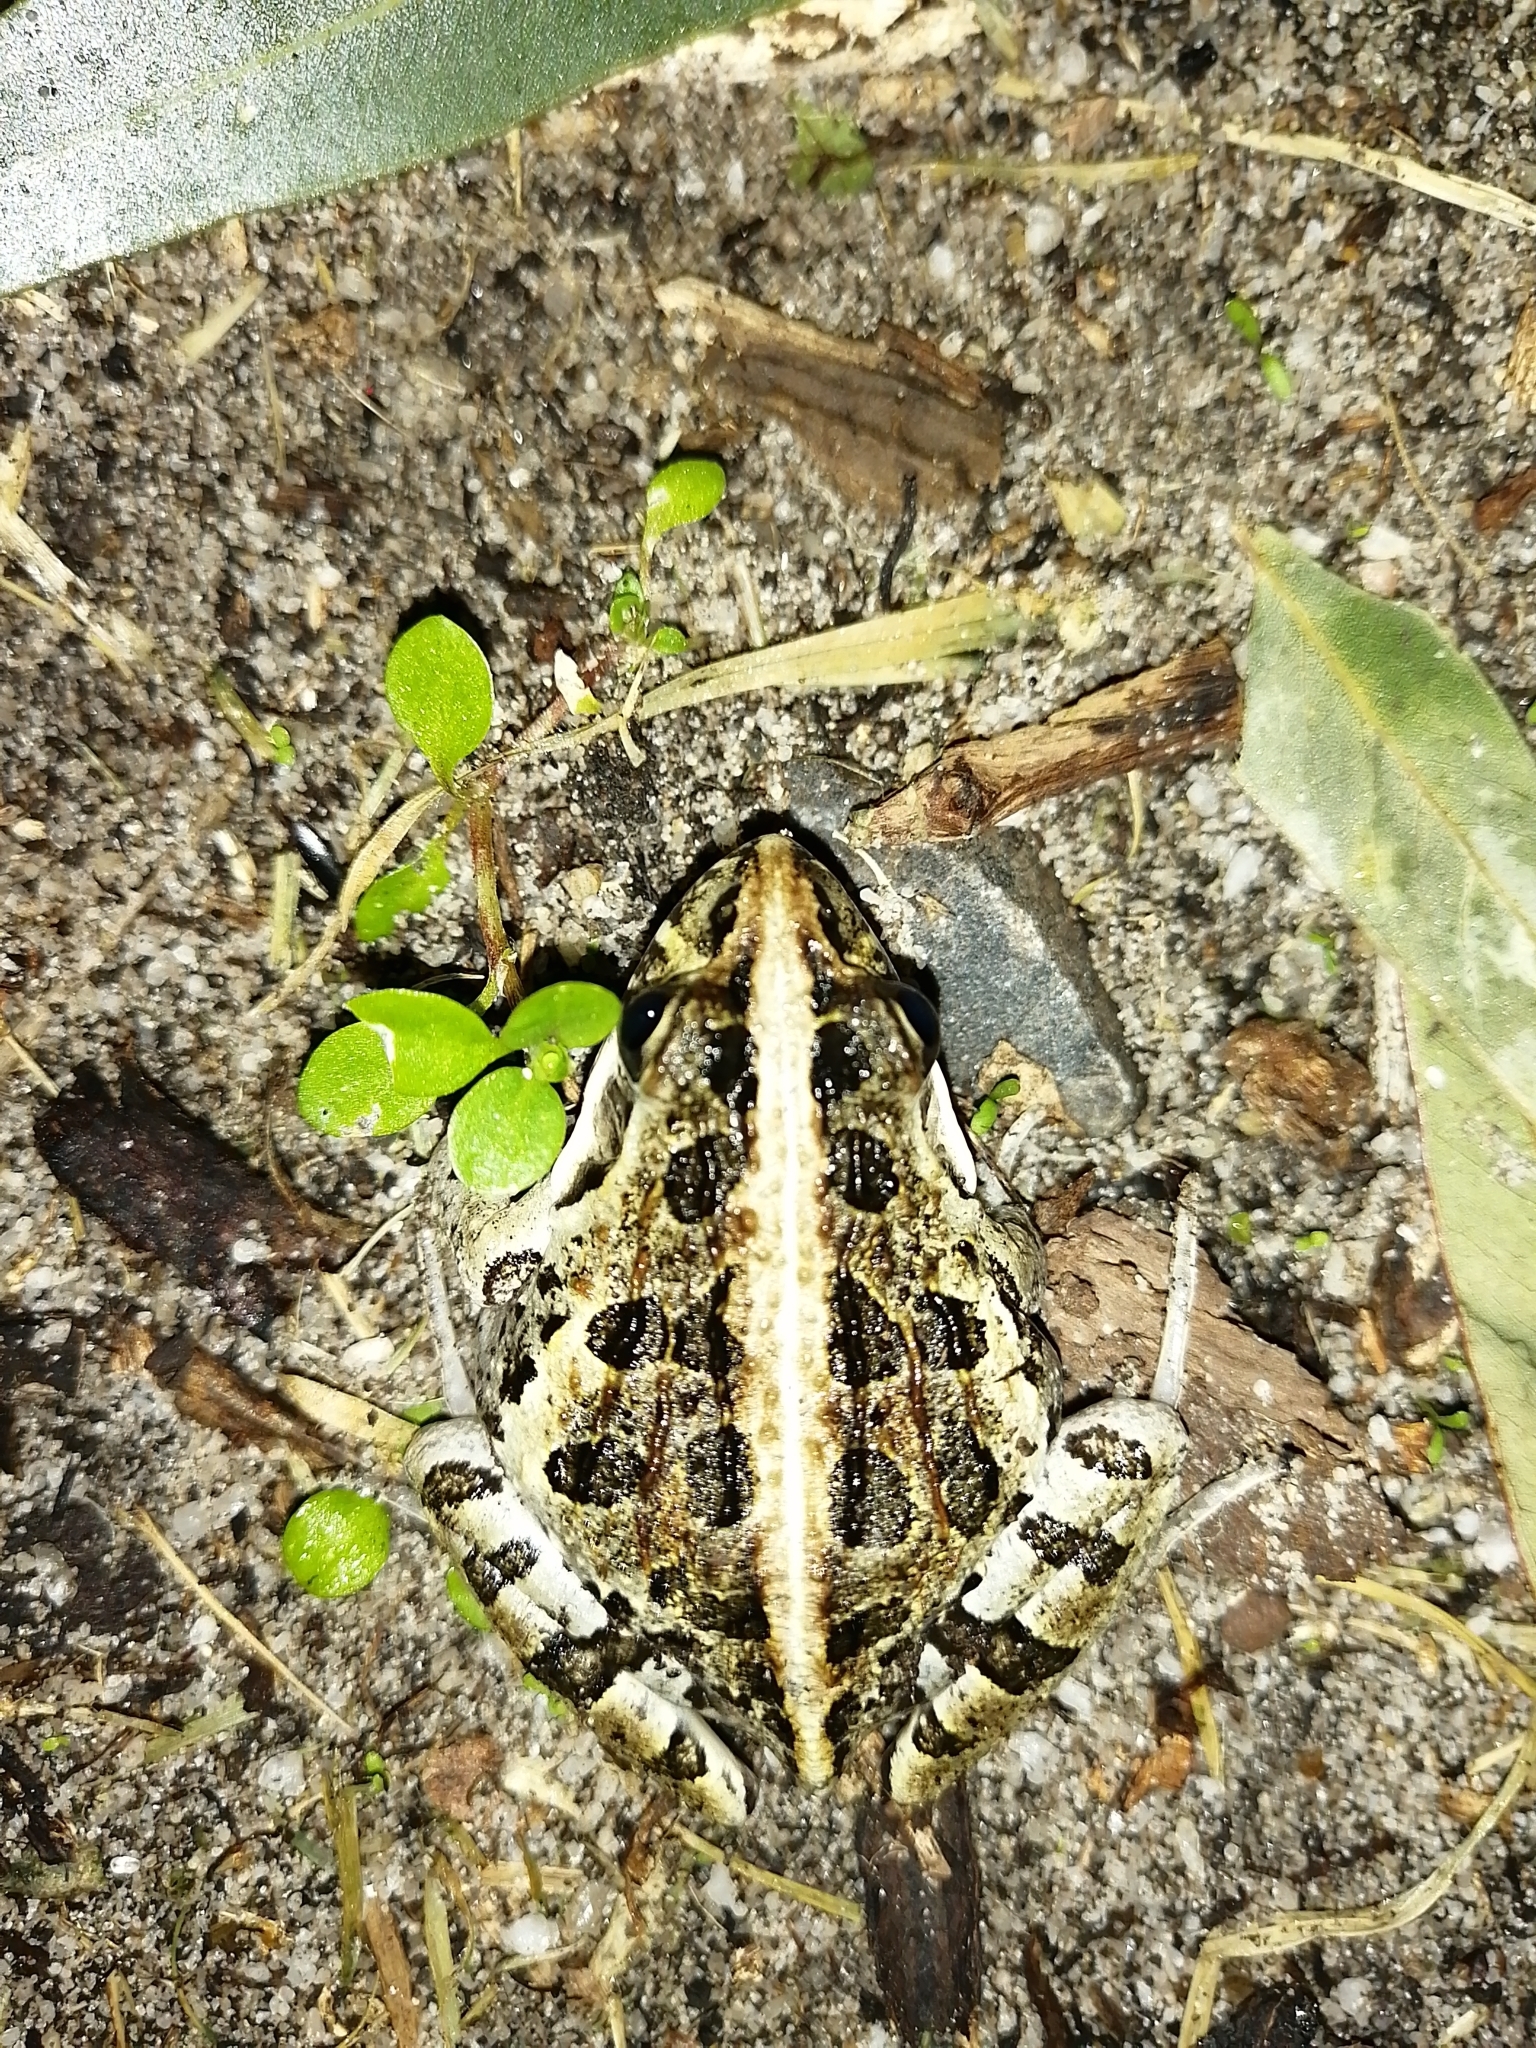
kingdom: Animalia
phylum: Chordata
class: Amphibia
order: Anura
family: Pyxicephalidae
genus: Strongylopus
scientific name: Strongylopus grayii
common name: Gray's stream frog
